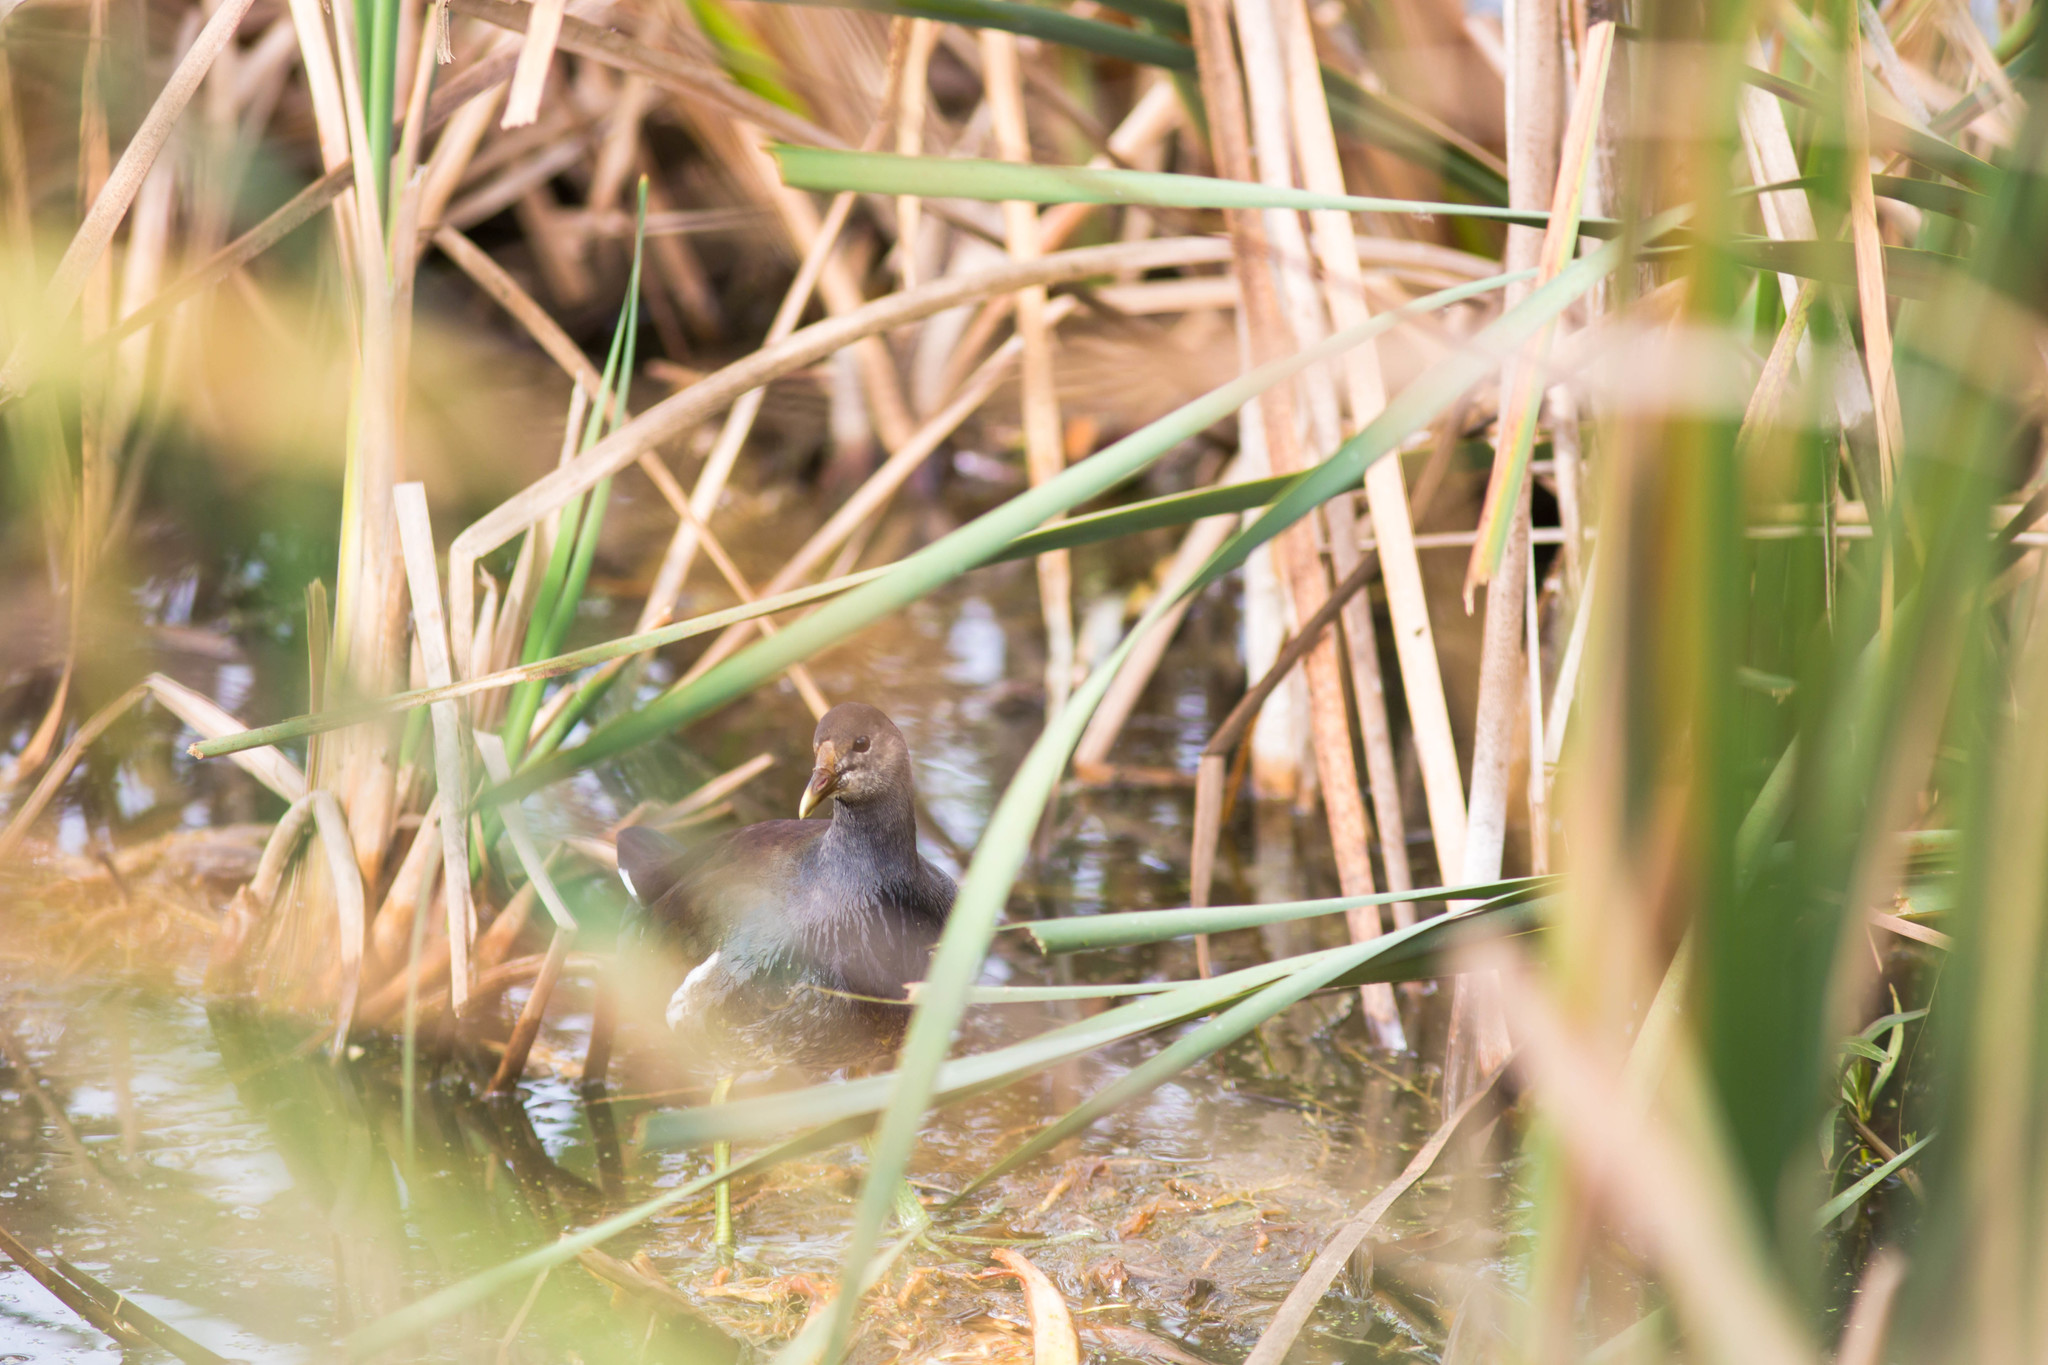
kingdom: Animalia
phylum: Chordata
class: Aves
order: Gruiformes
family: Rallidae
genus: Gallinula
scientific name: Gallinula chloropus
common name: Common moorhen
